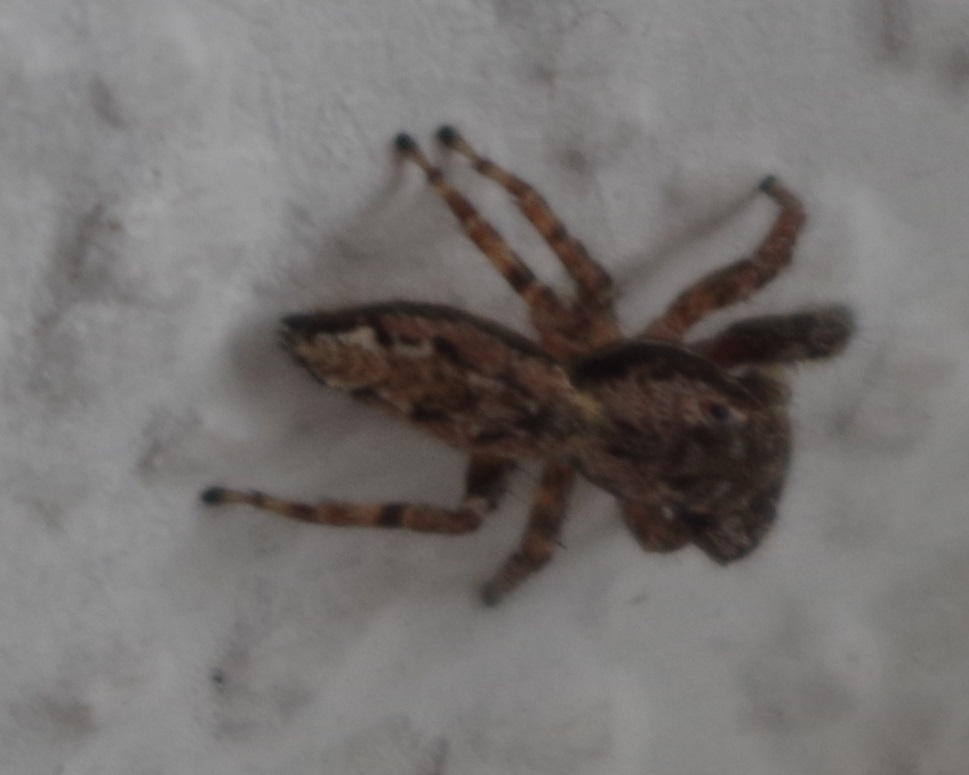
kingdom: Animalia
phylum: Arthropoda
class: Arachnida
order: Araneae
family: Salticidae
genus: Marpissa
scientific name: Marpissa muscosa
